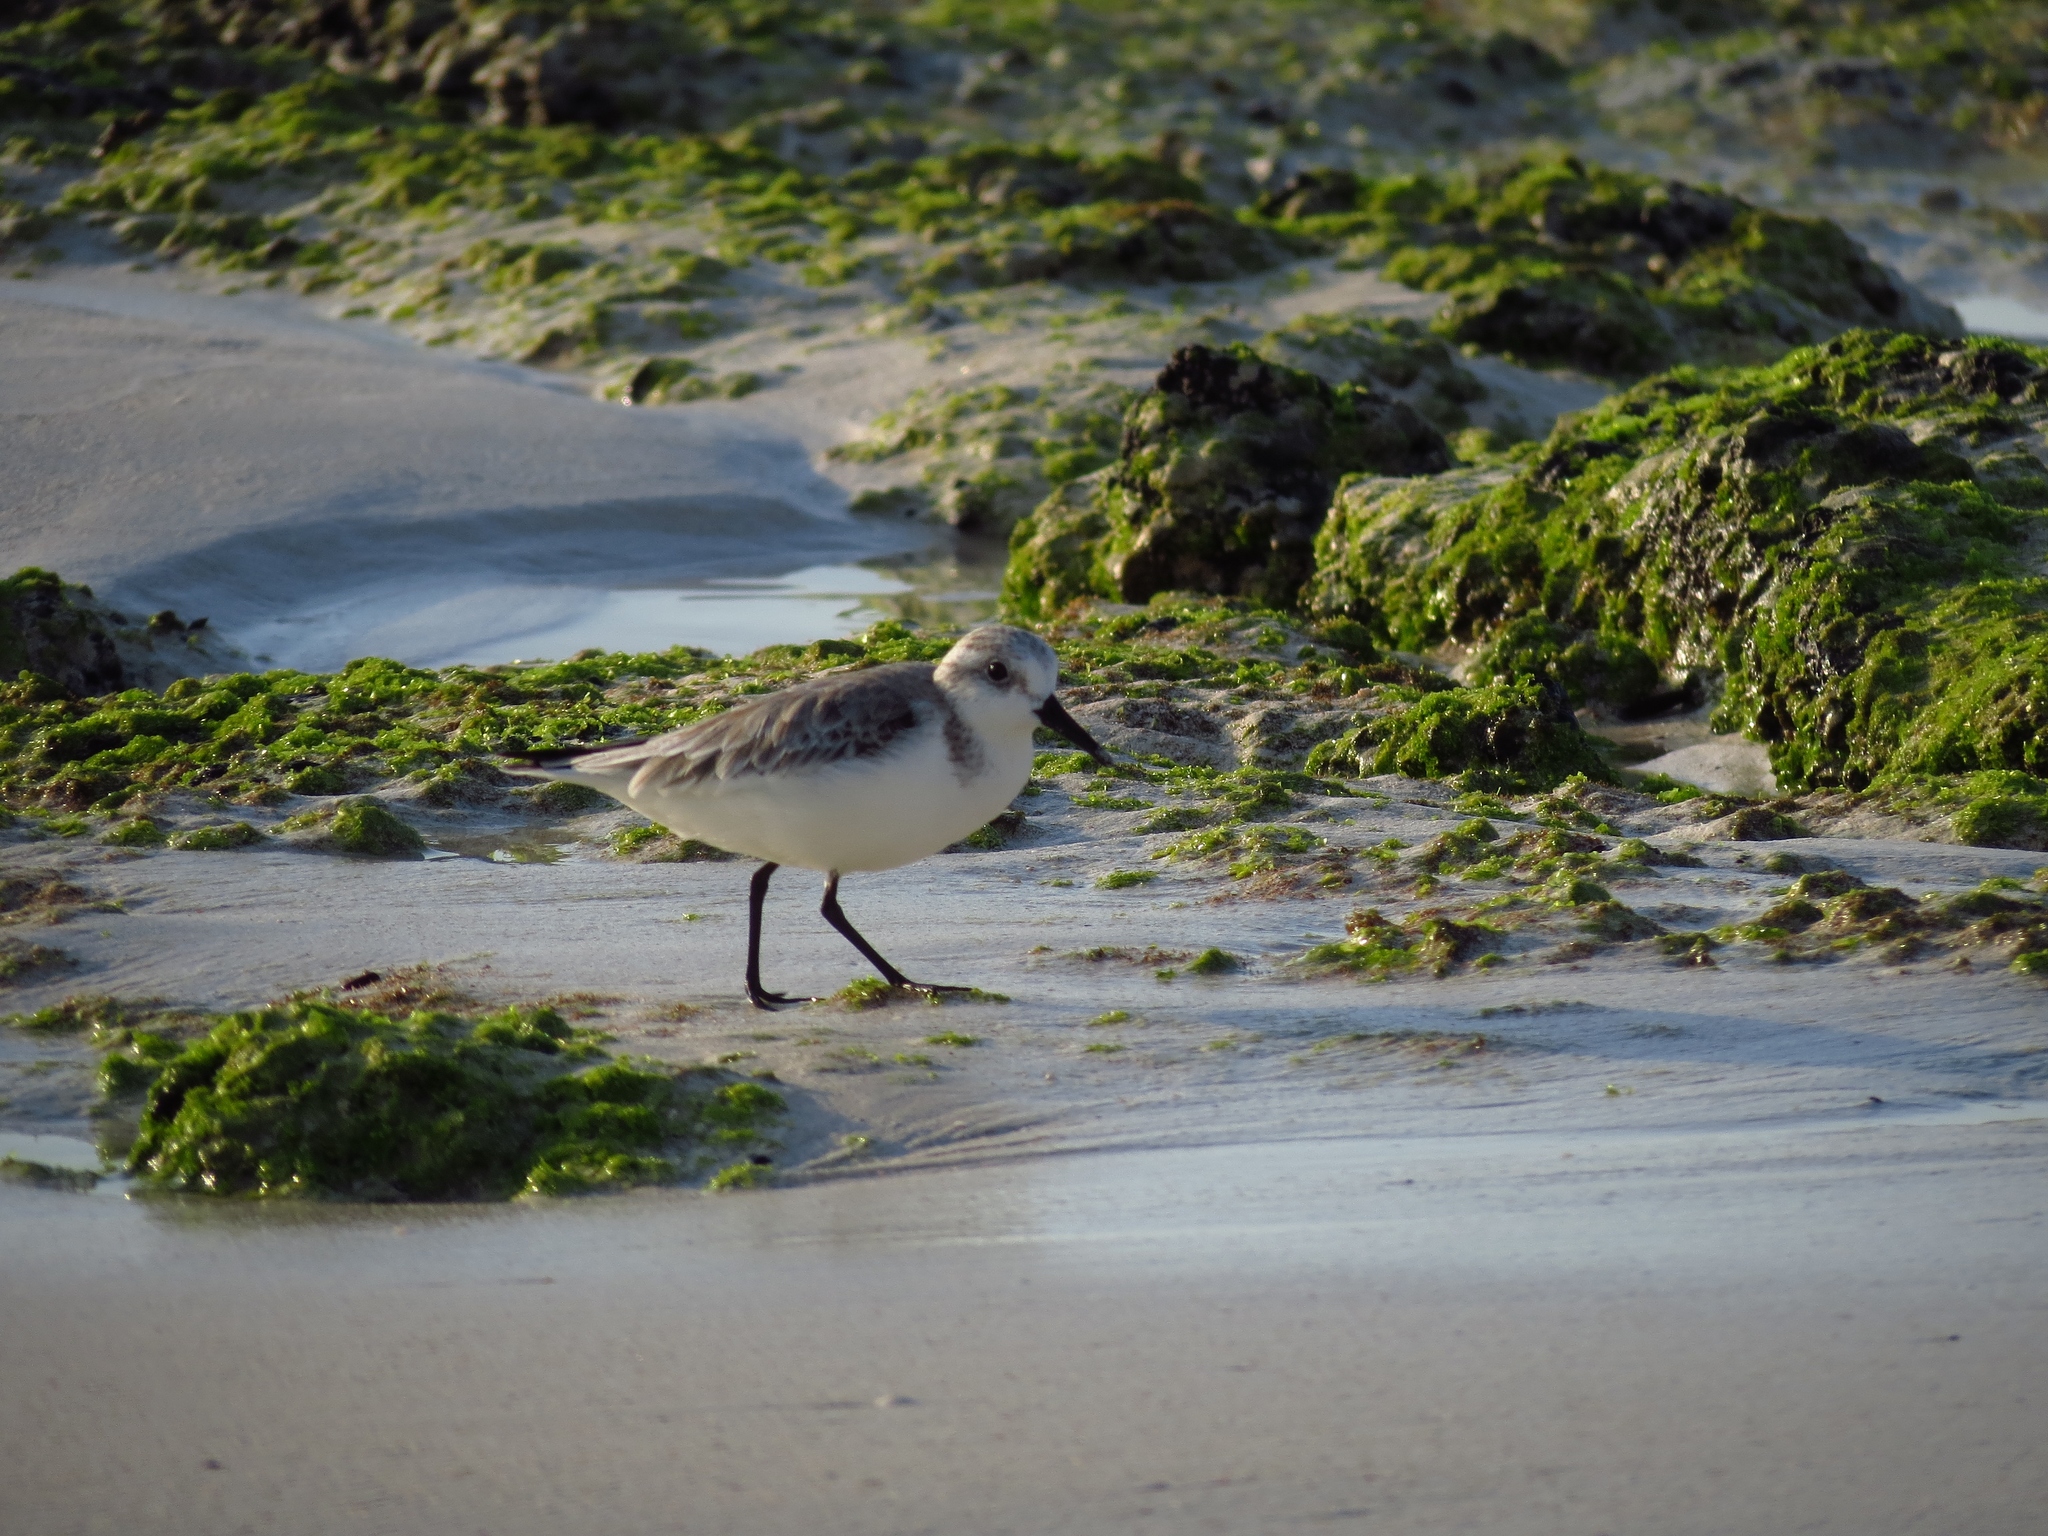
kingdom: Animalia
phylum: Chordata
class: Aves
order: Charadriiformes
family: Scolopacidae
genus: Calidris
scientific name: Calidris alba
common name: Sanderling
